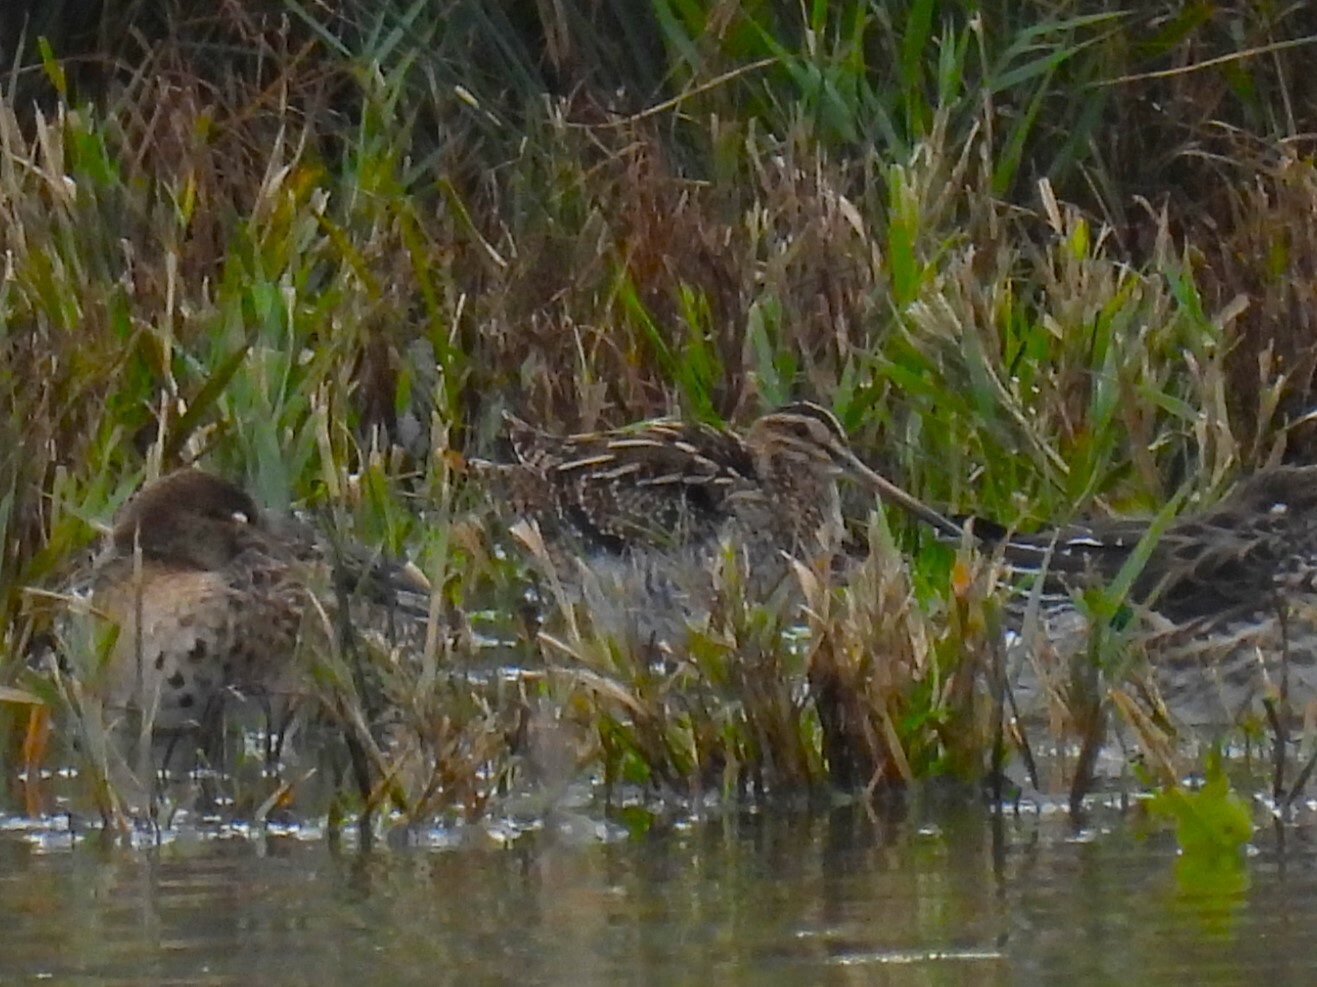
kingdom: Animalia
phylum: Chordata
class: Aves
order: Charadriiformes
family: Scolopacidae
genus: Gallinago
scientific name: Gallinago gallinago
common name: Common snipe
